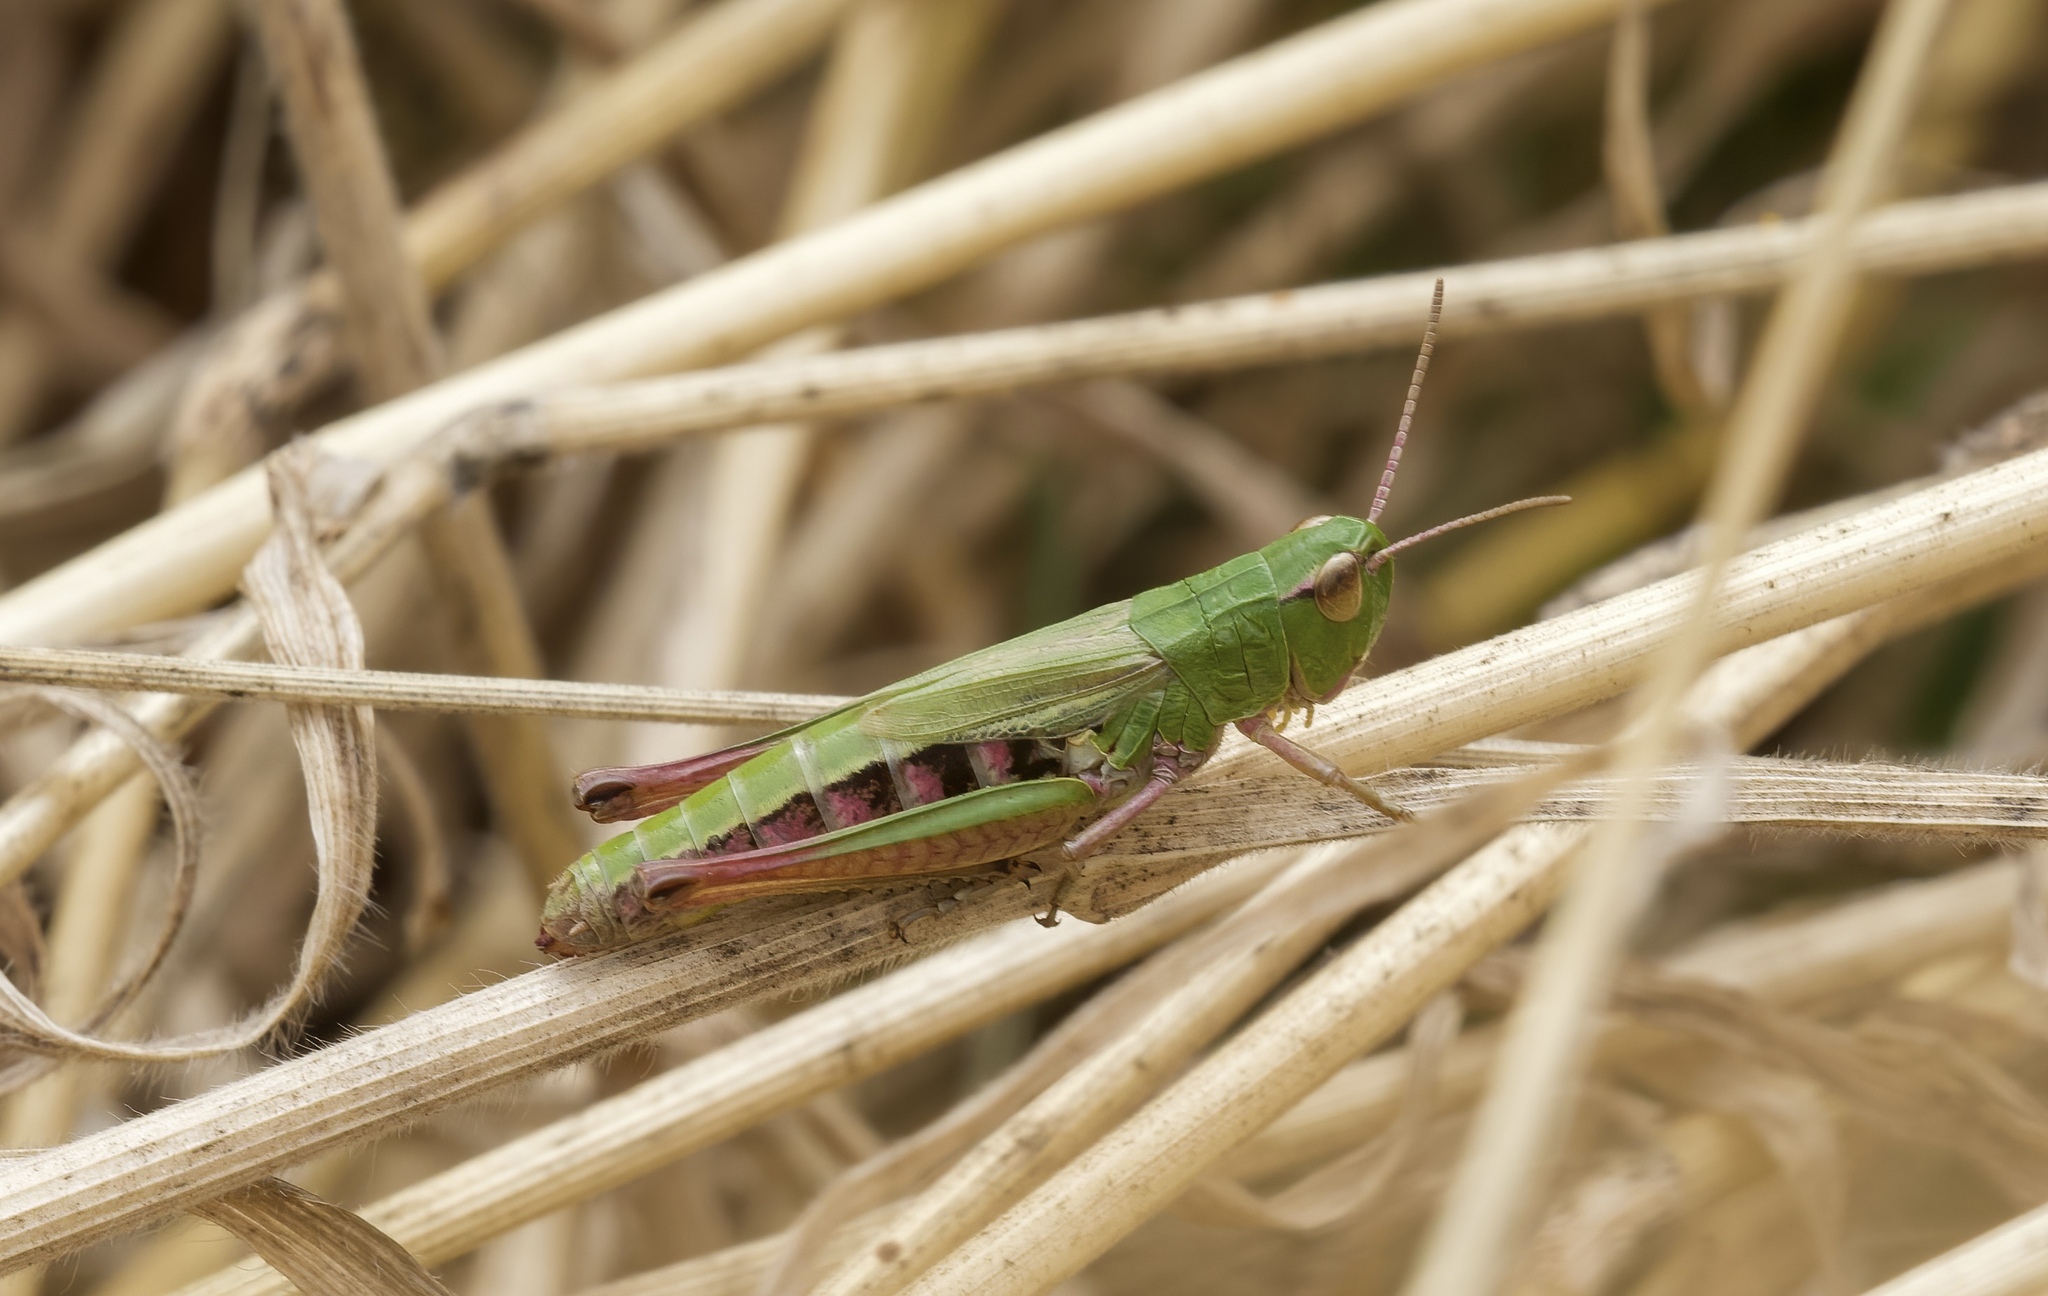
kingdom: Animalia
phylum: Arthropoda
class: Insecta
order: Orthoptera
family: Acrididae
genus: Pseudochorthippus
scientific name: Pseudochorthippus parallelus
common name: Meadow grasshopper
